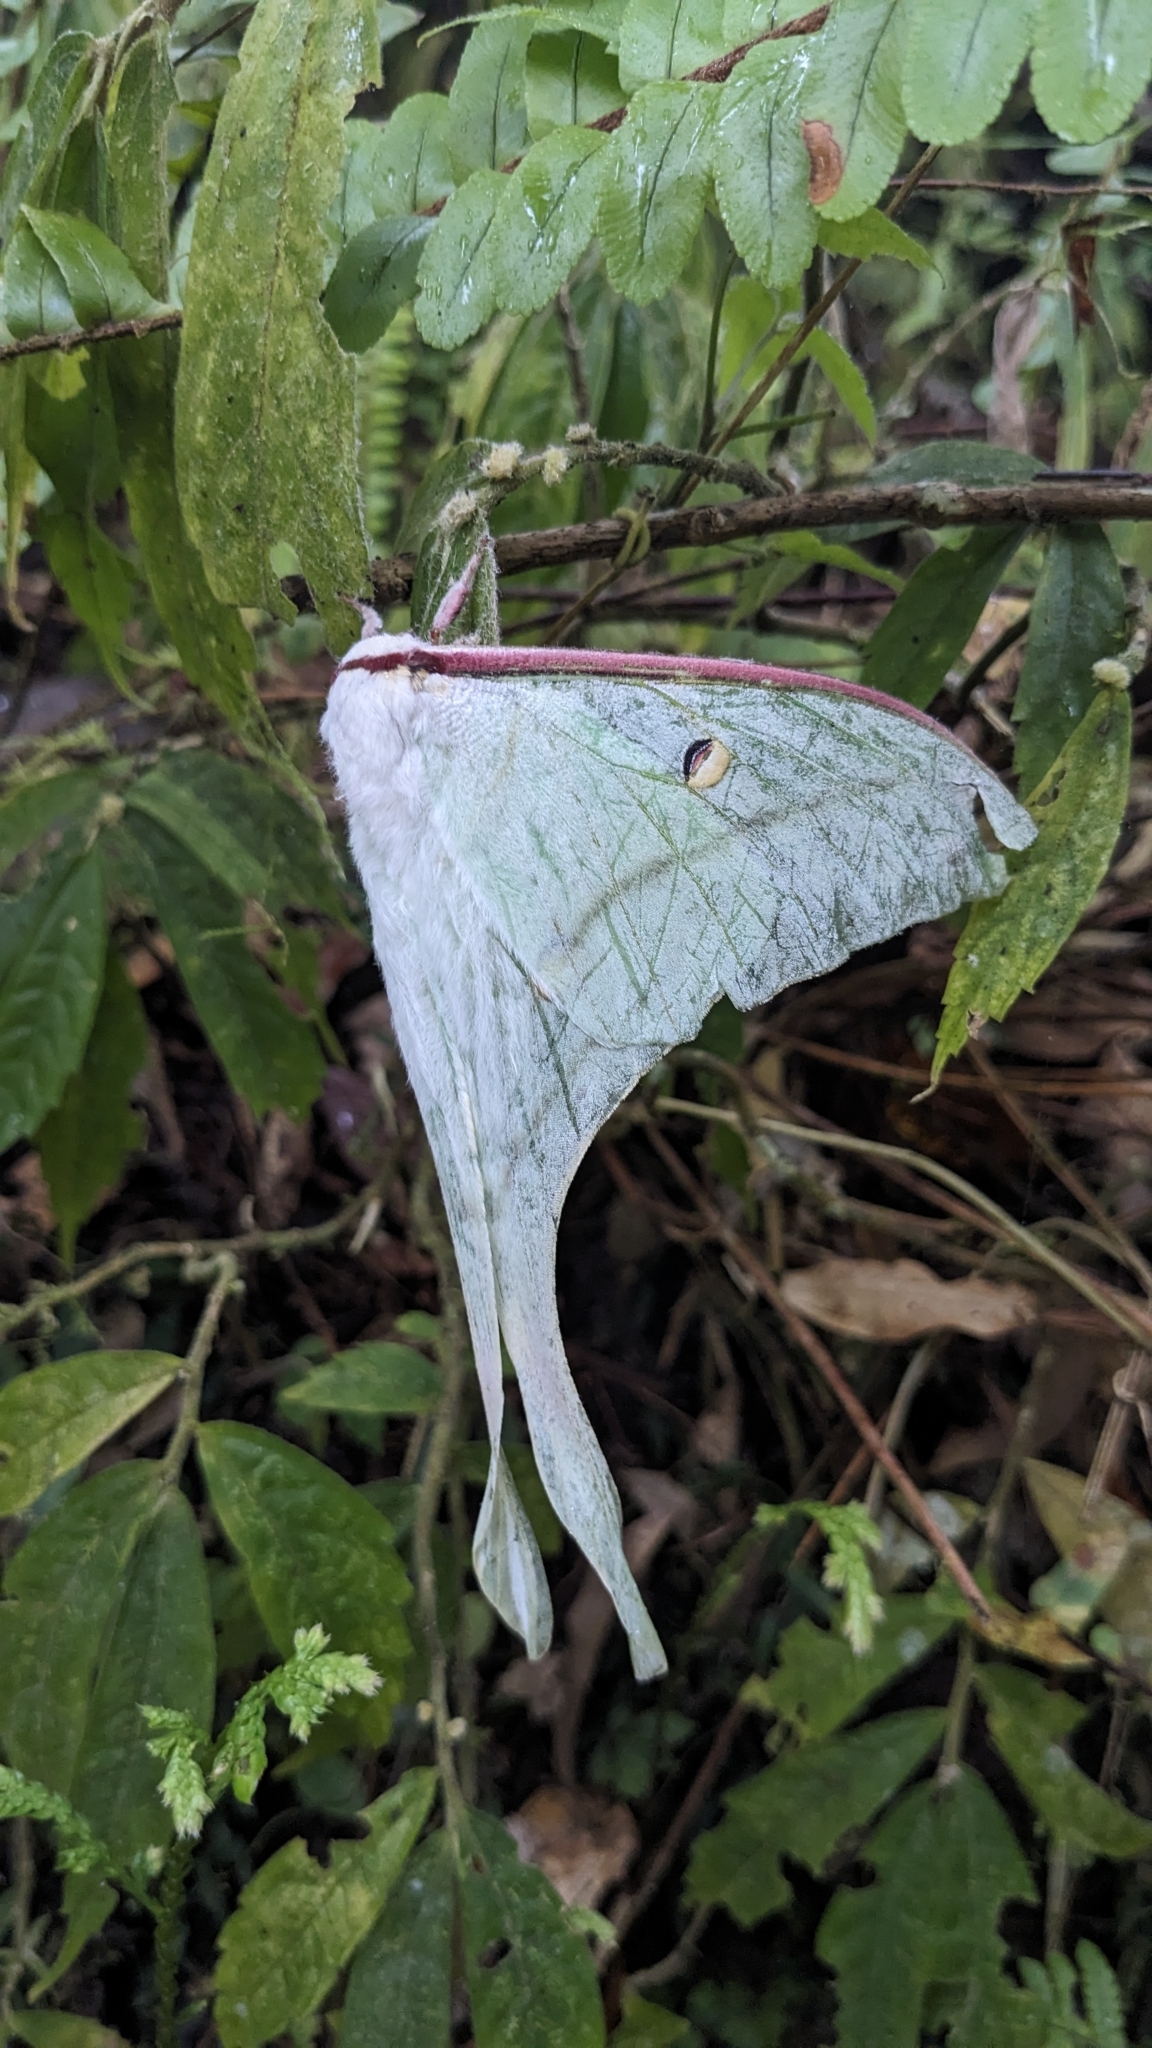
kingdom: Animalia
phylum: Arthropoda
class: Insecta
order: Lepidoptera
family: Saturniidae
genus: Actias
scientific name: Actias ningpoana
